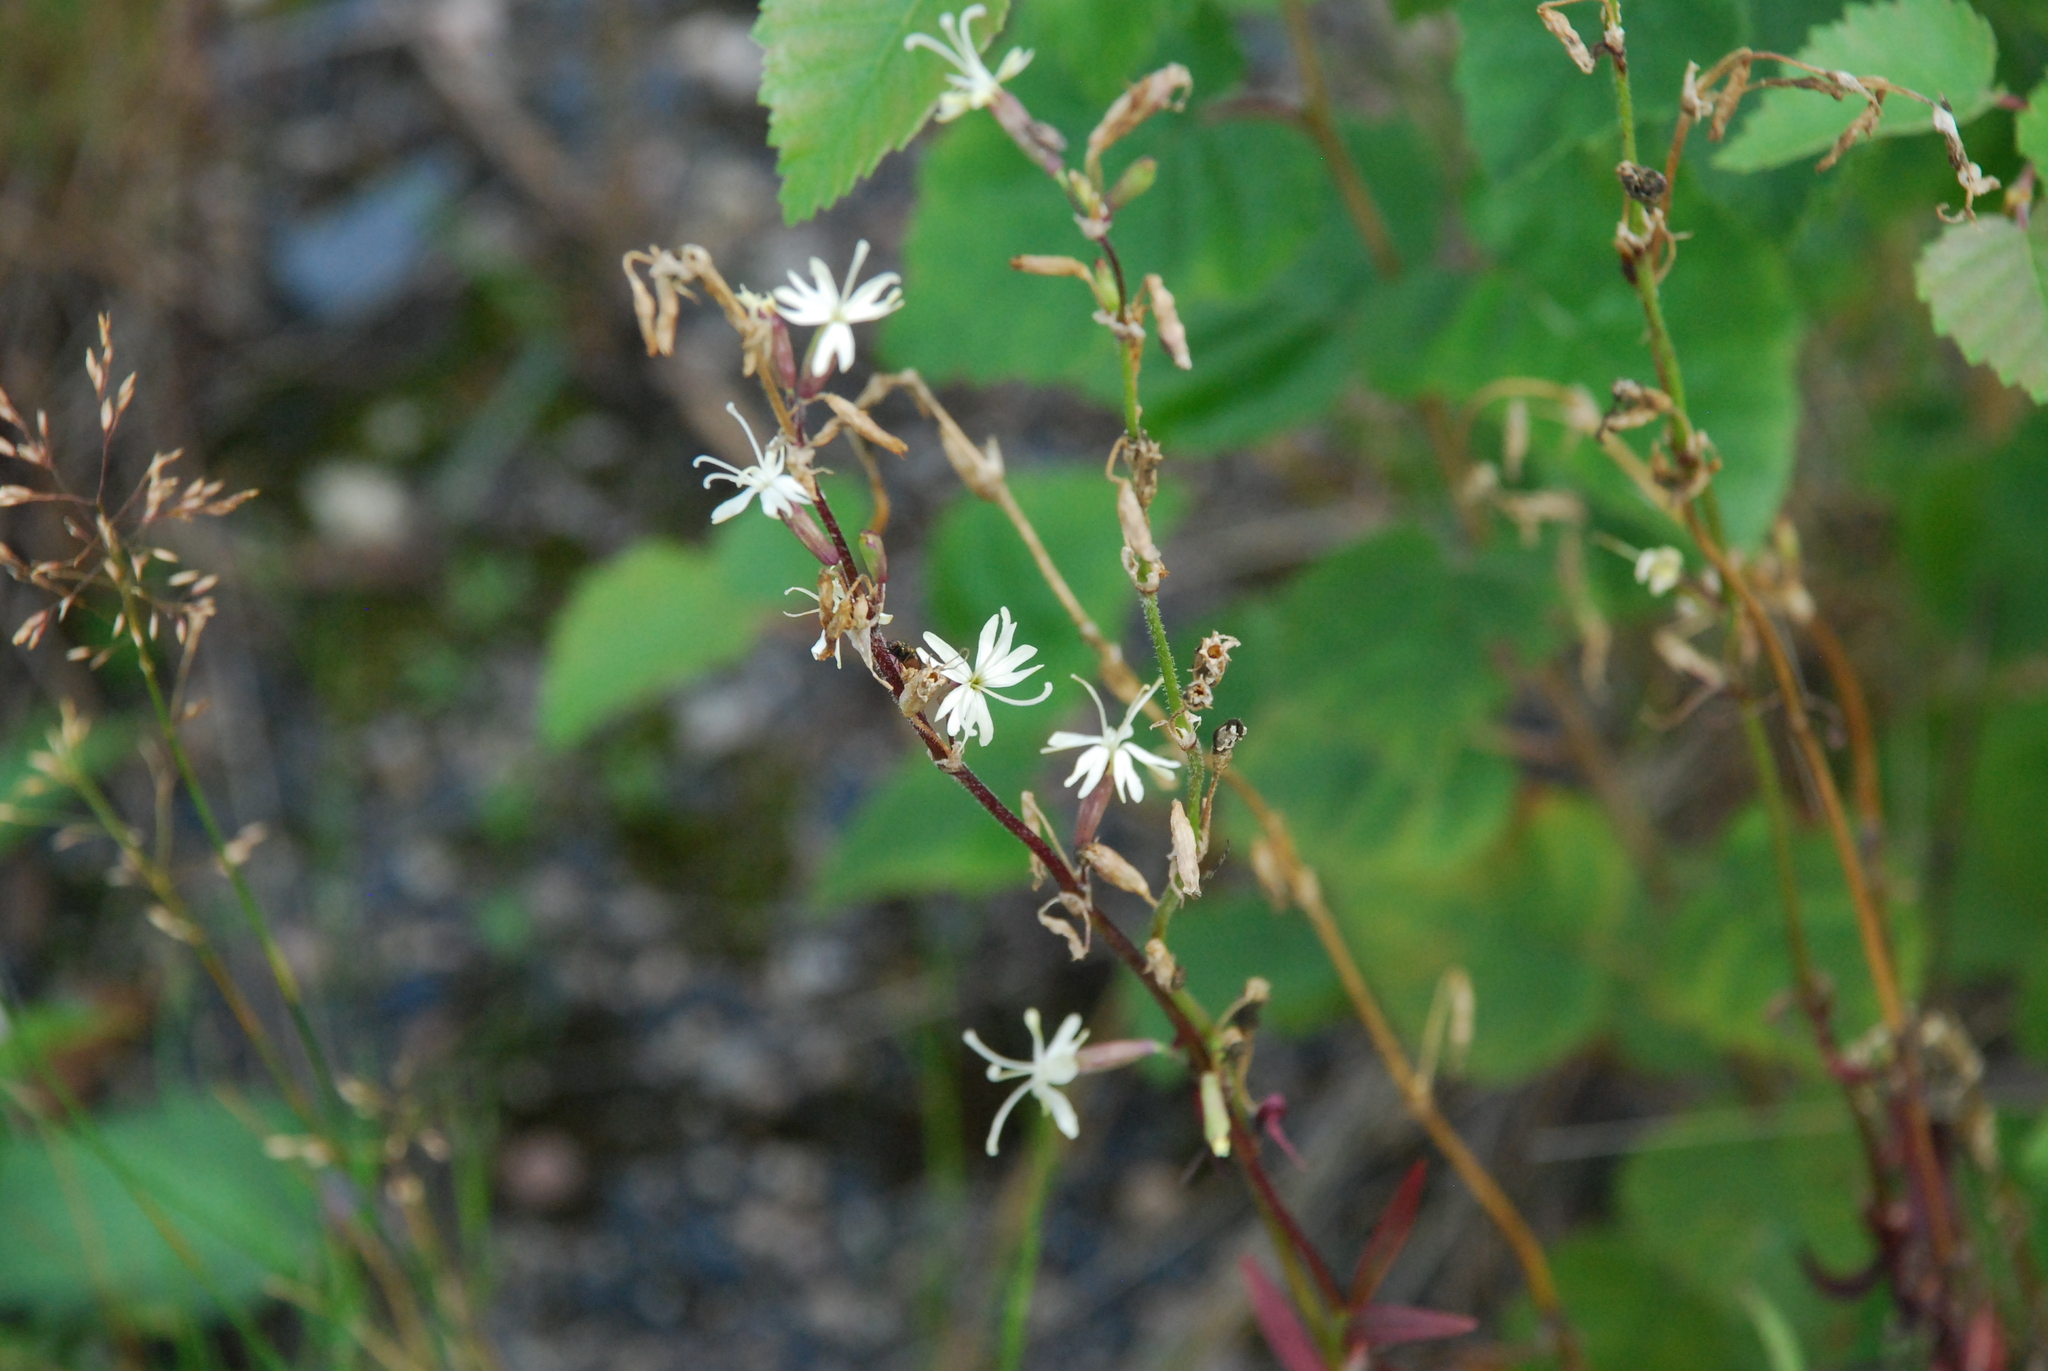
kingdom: Plantae
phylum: Tracheophyta
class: Magnoliopsida
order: Caryophyllales
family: Caryophyllaceae
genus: Silene
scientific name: Silene tatarica
